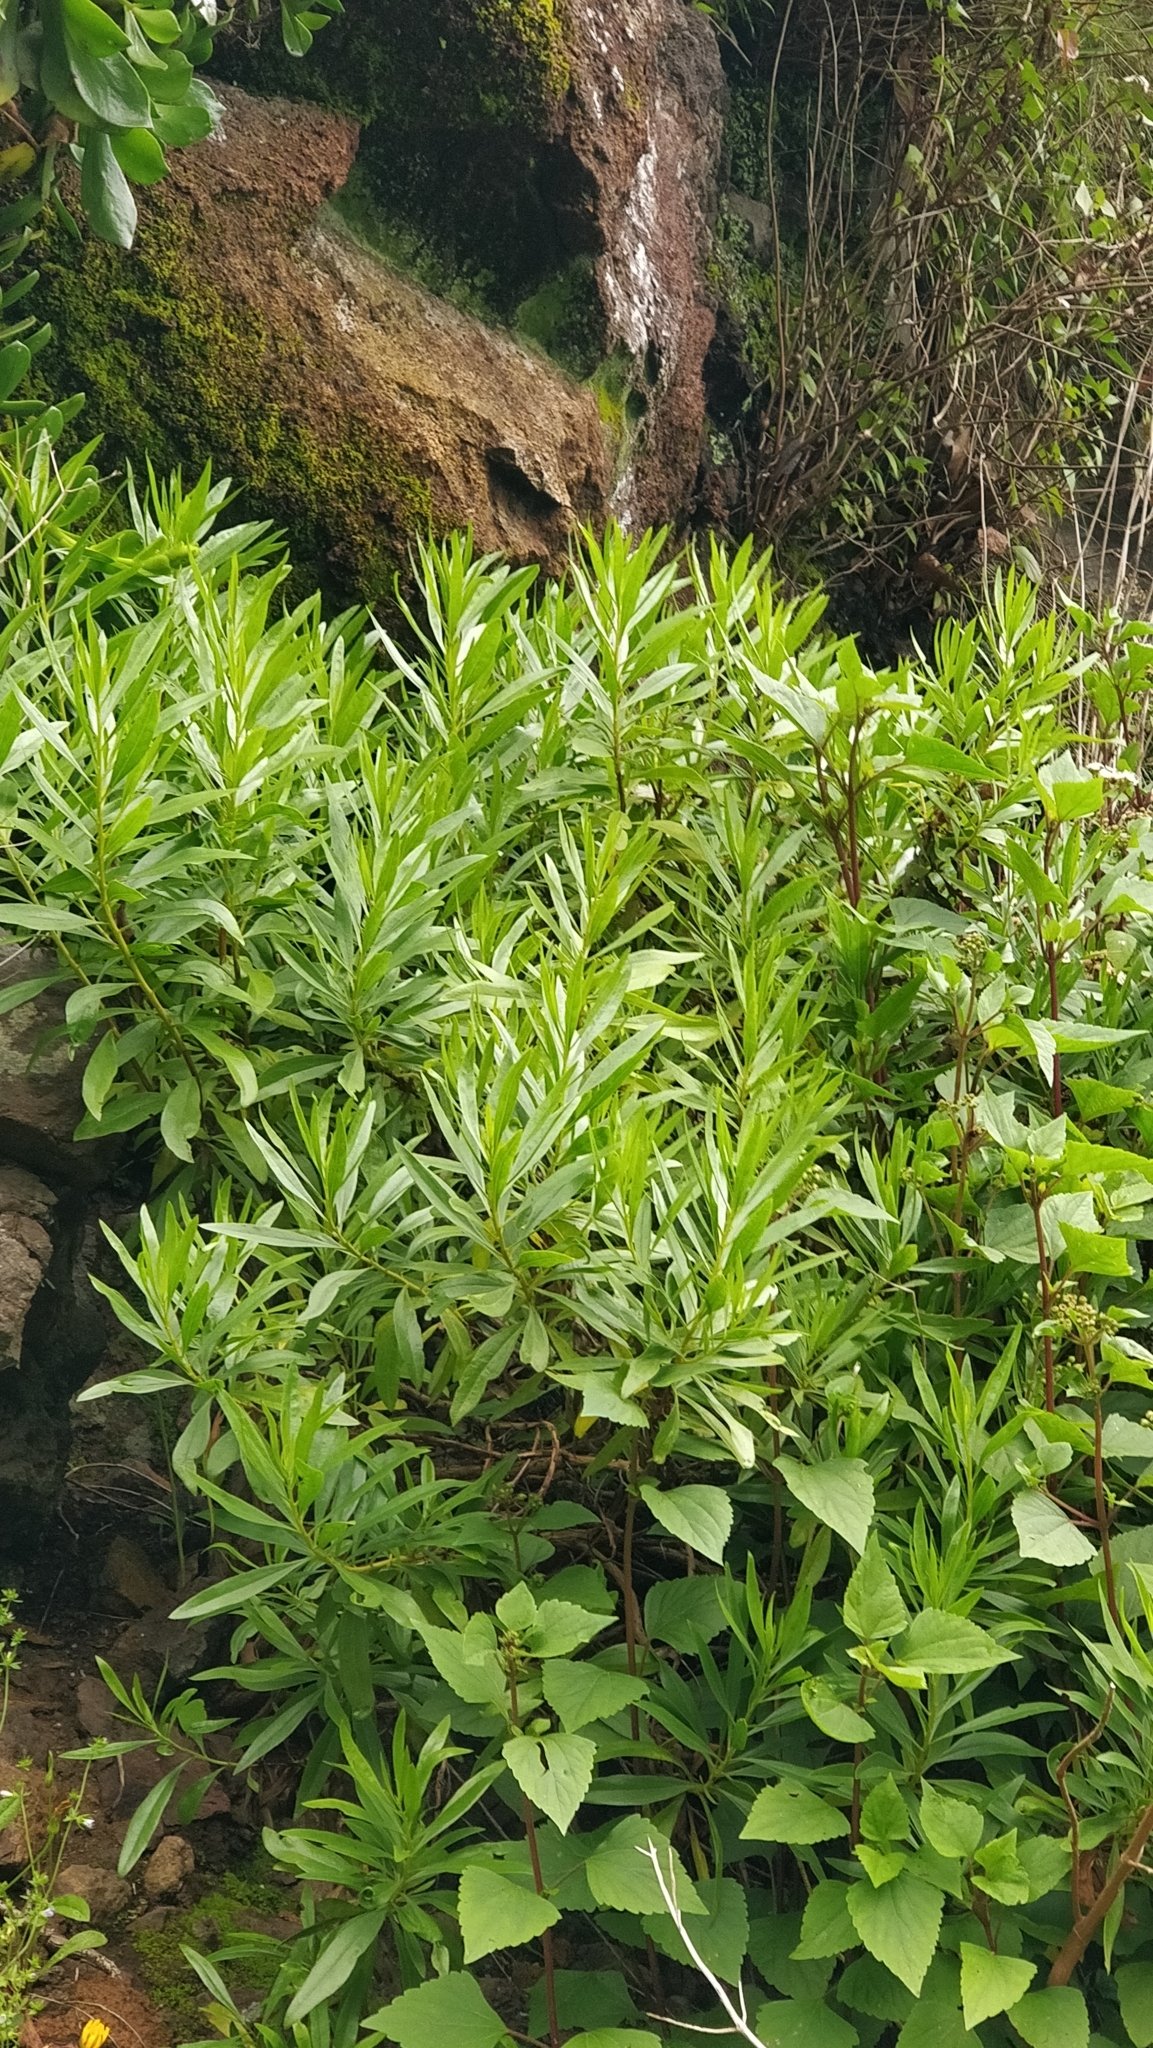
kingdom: Plantae
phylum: Tracheophyta
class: Magnoliopsida
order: Lamiales
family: Plantaginaceae
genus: Globularia
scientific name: Globularia salicina
